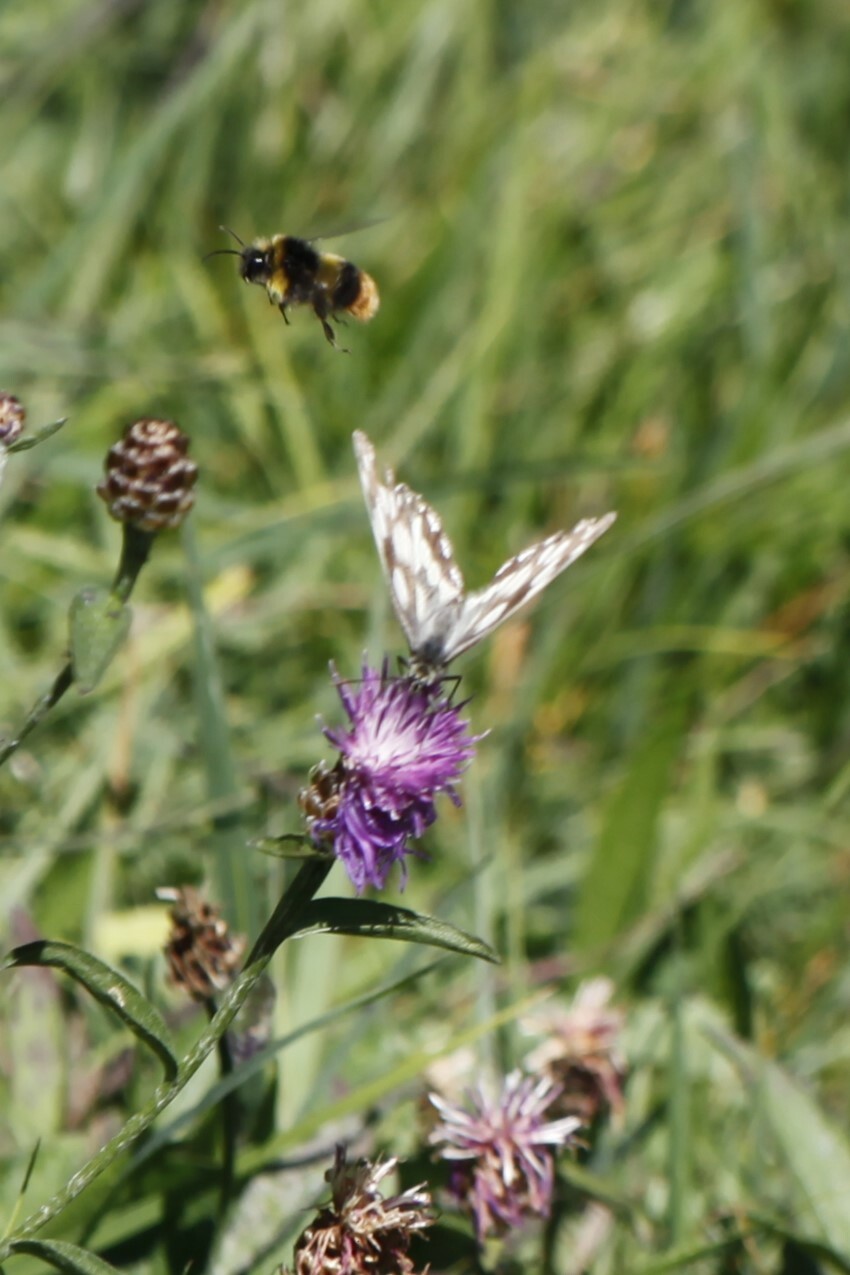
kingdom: Animalia
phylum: Arthropoda
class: Insecta
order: Lepidoptera
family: Nymphalidae
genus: Melanargia
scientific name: Melanargia galathea
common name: Marbled white
